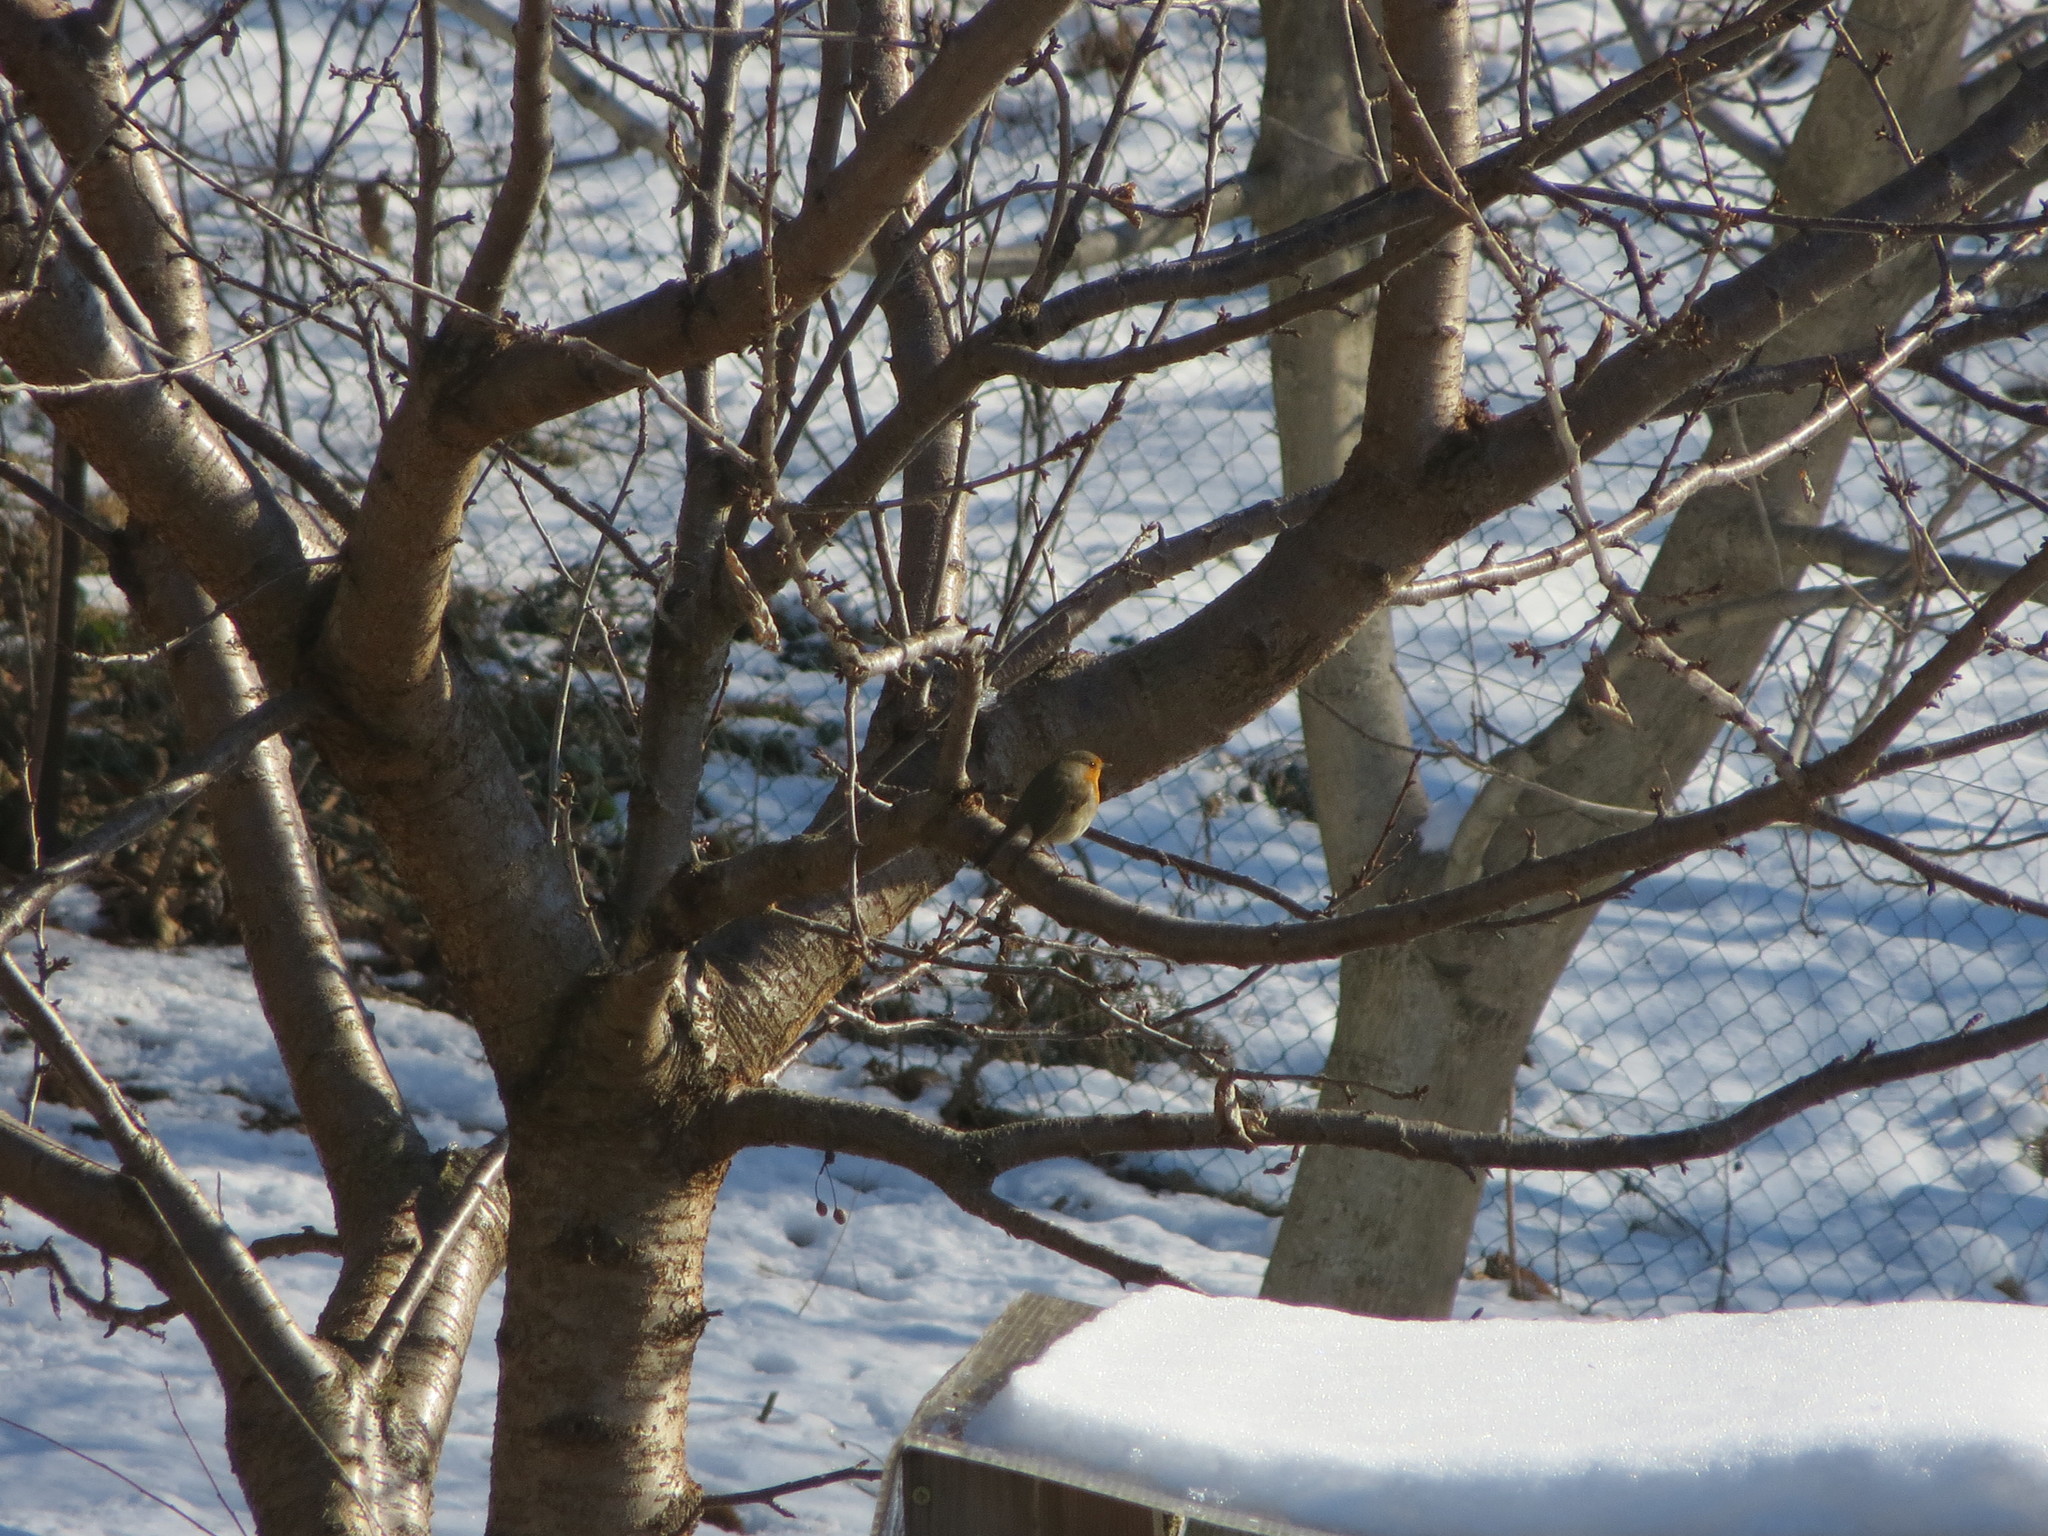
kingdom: Animalia
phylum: Chordata
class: Aves
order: Passeriformes
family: Muscicapidae
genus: Erithacus
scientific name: Erithacus rubecula
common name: European robin
